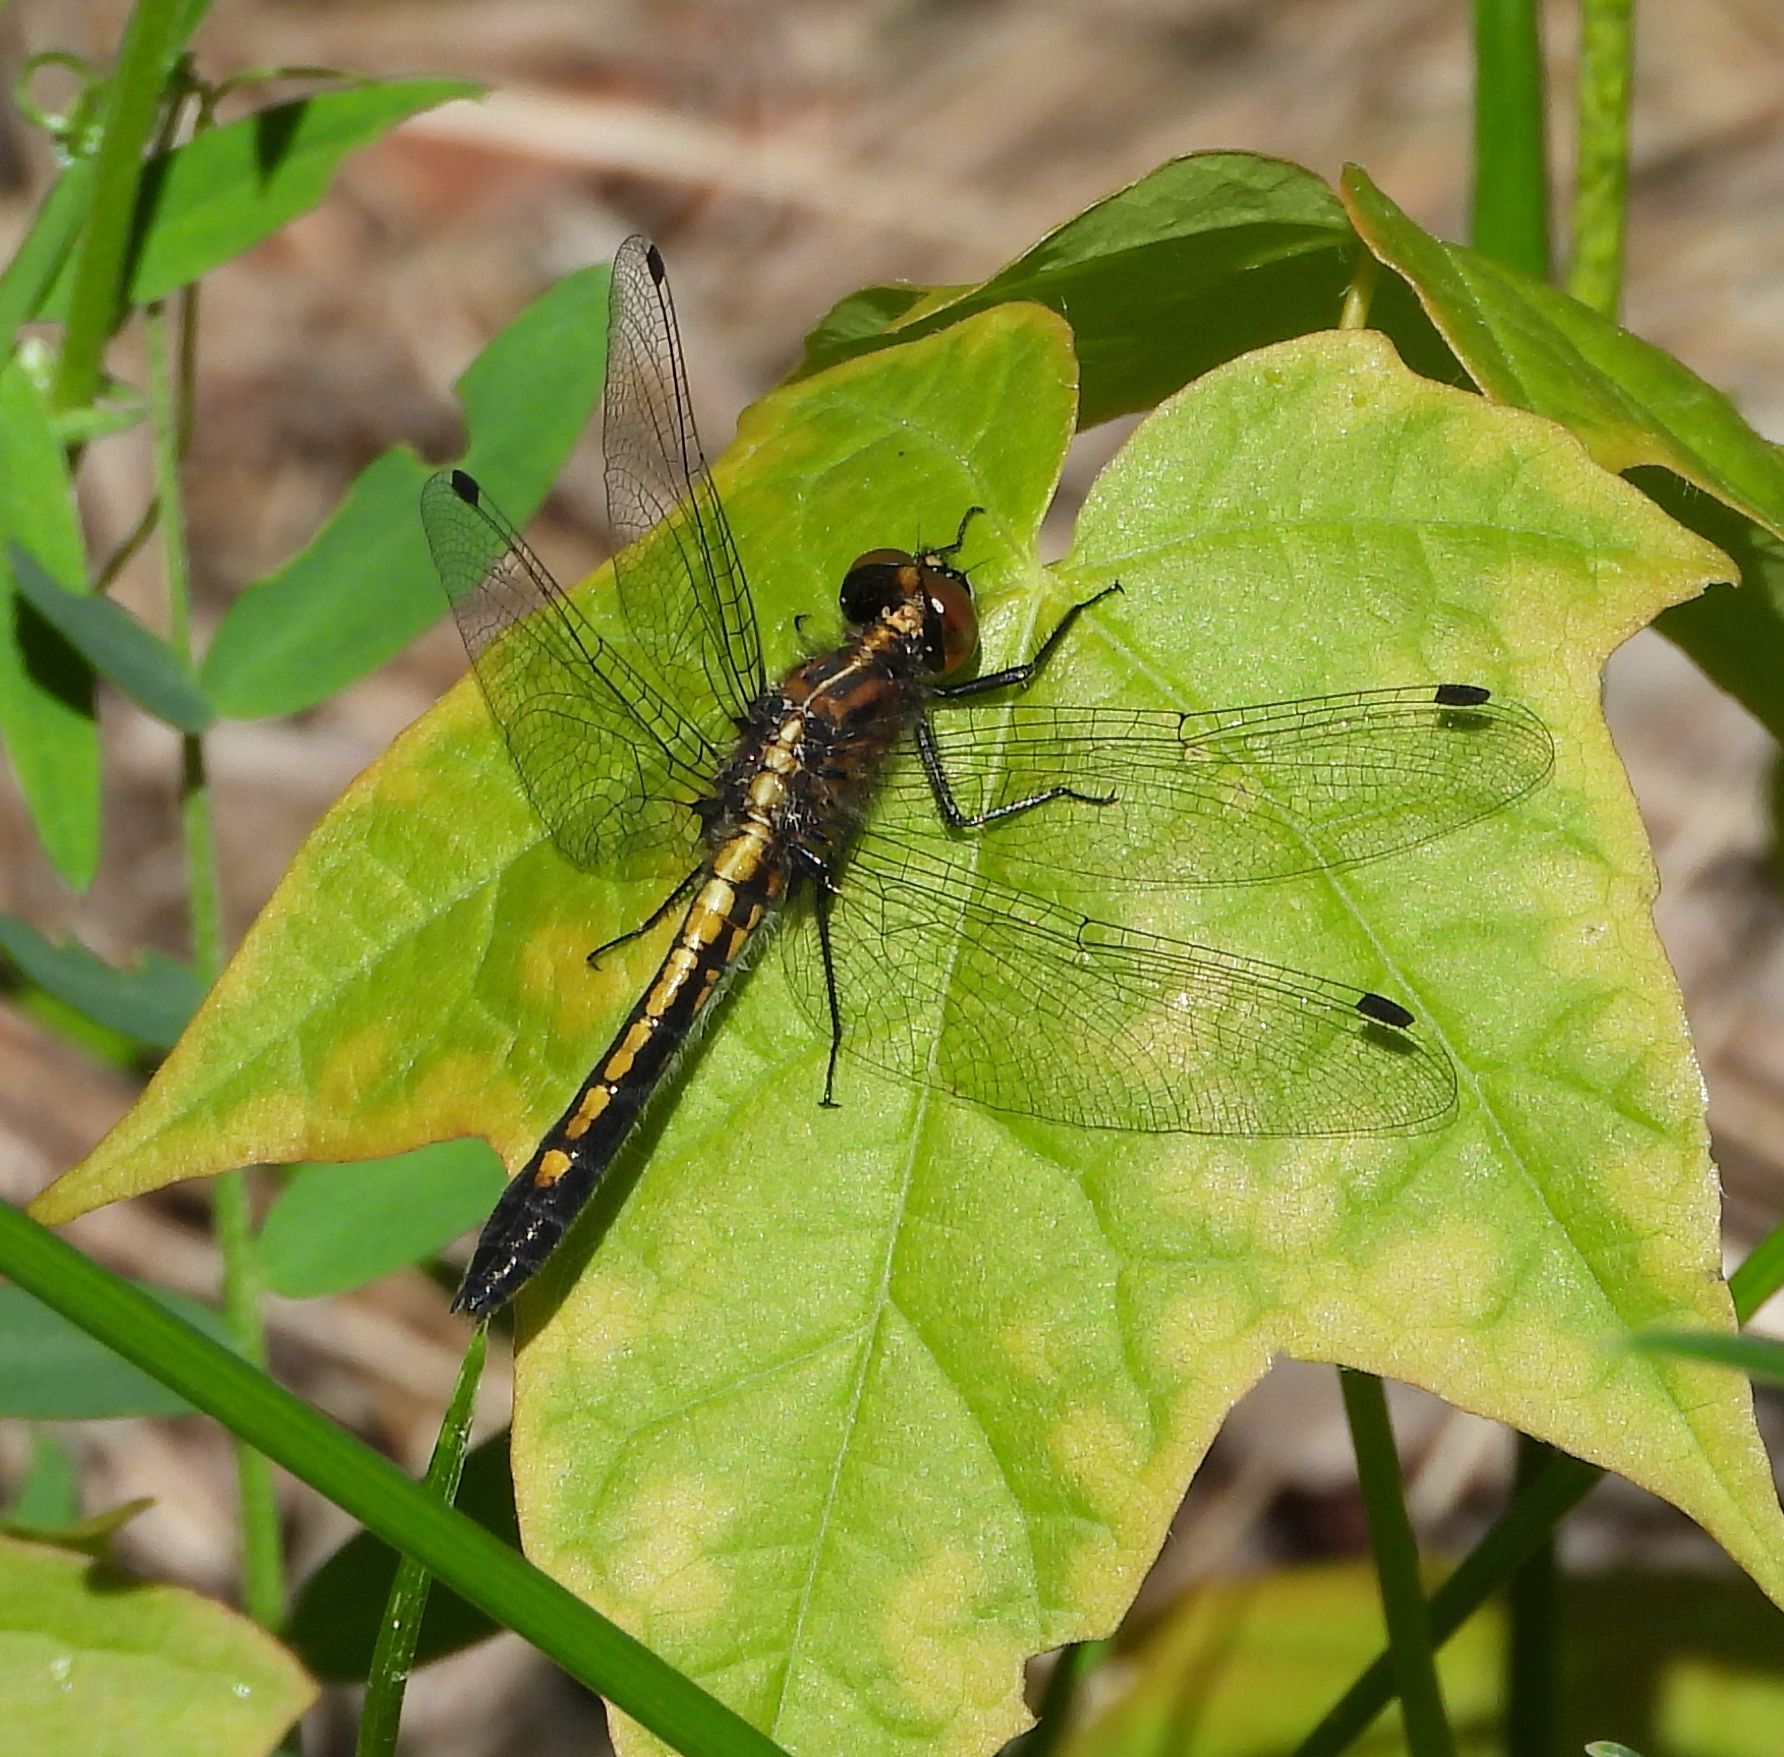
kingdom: Animalia
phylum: Arthropoda
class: Insecta
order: Odonata
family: Libellulidae
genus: Leucorrhinia
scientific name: Leucorrhinia intacta
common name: Dot-tailed whiteface
